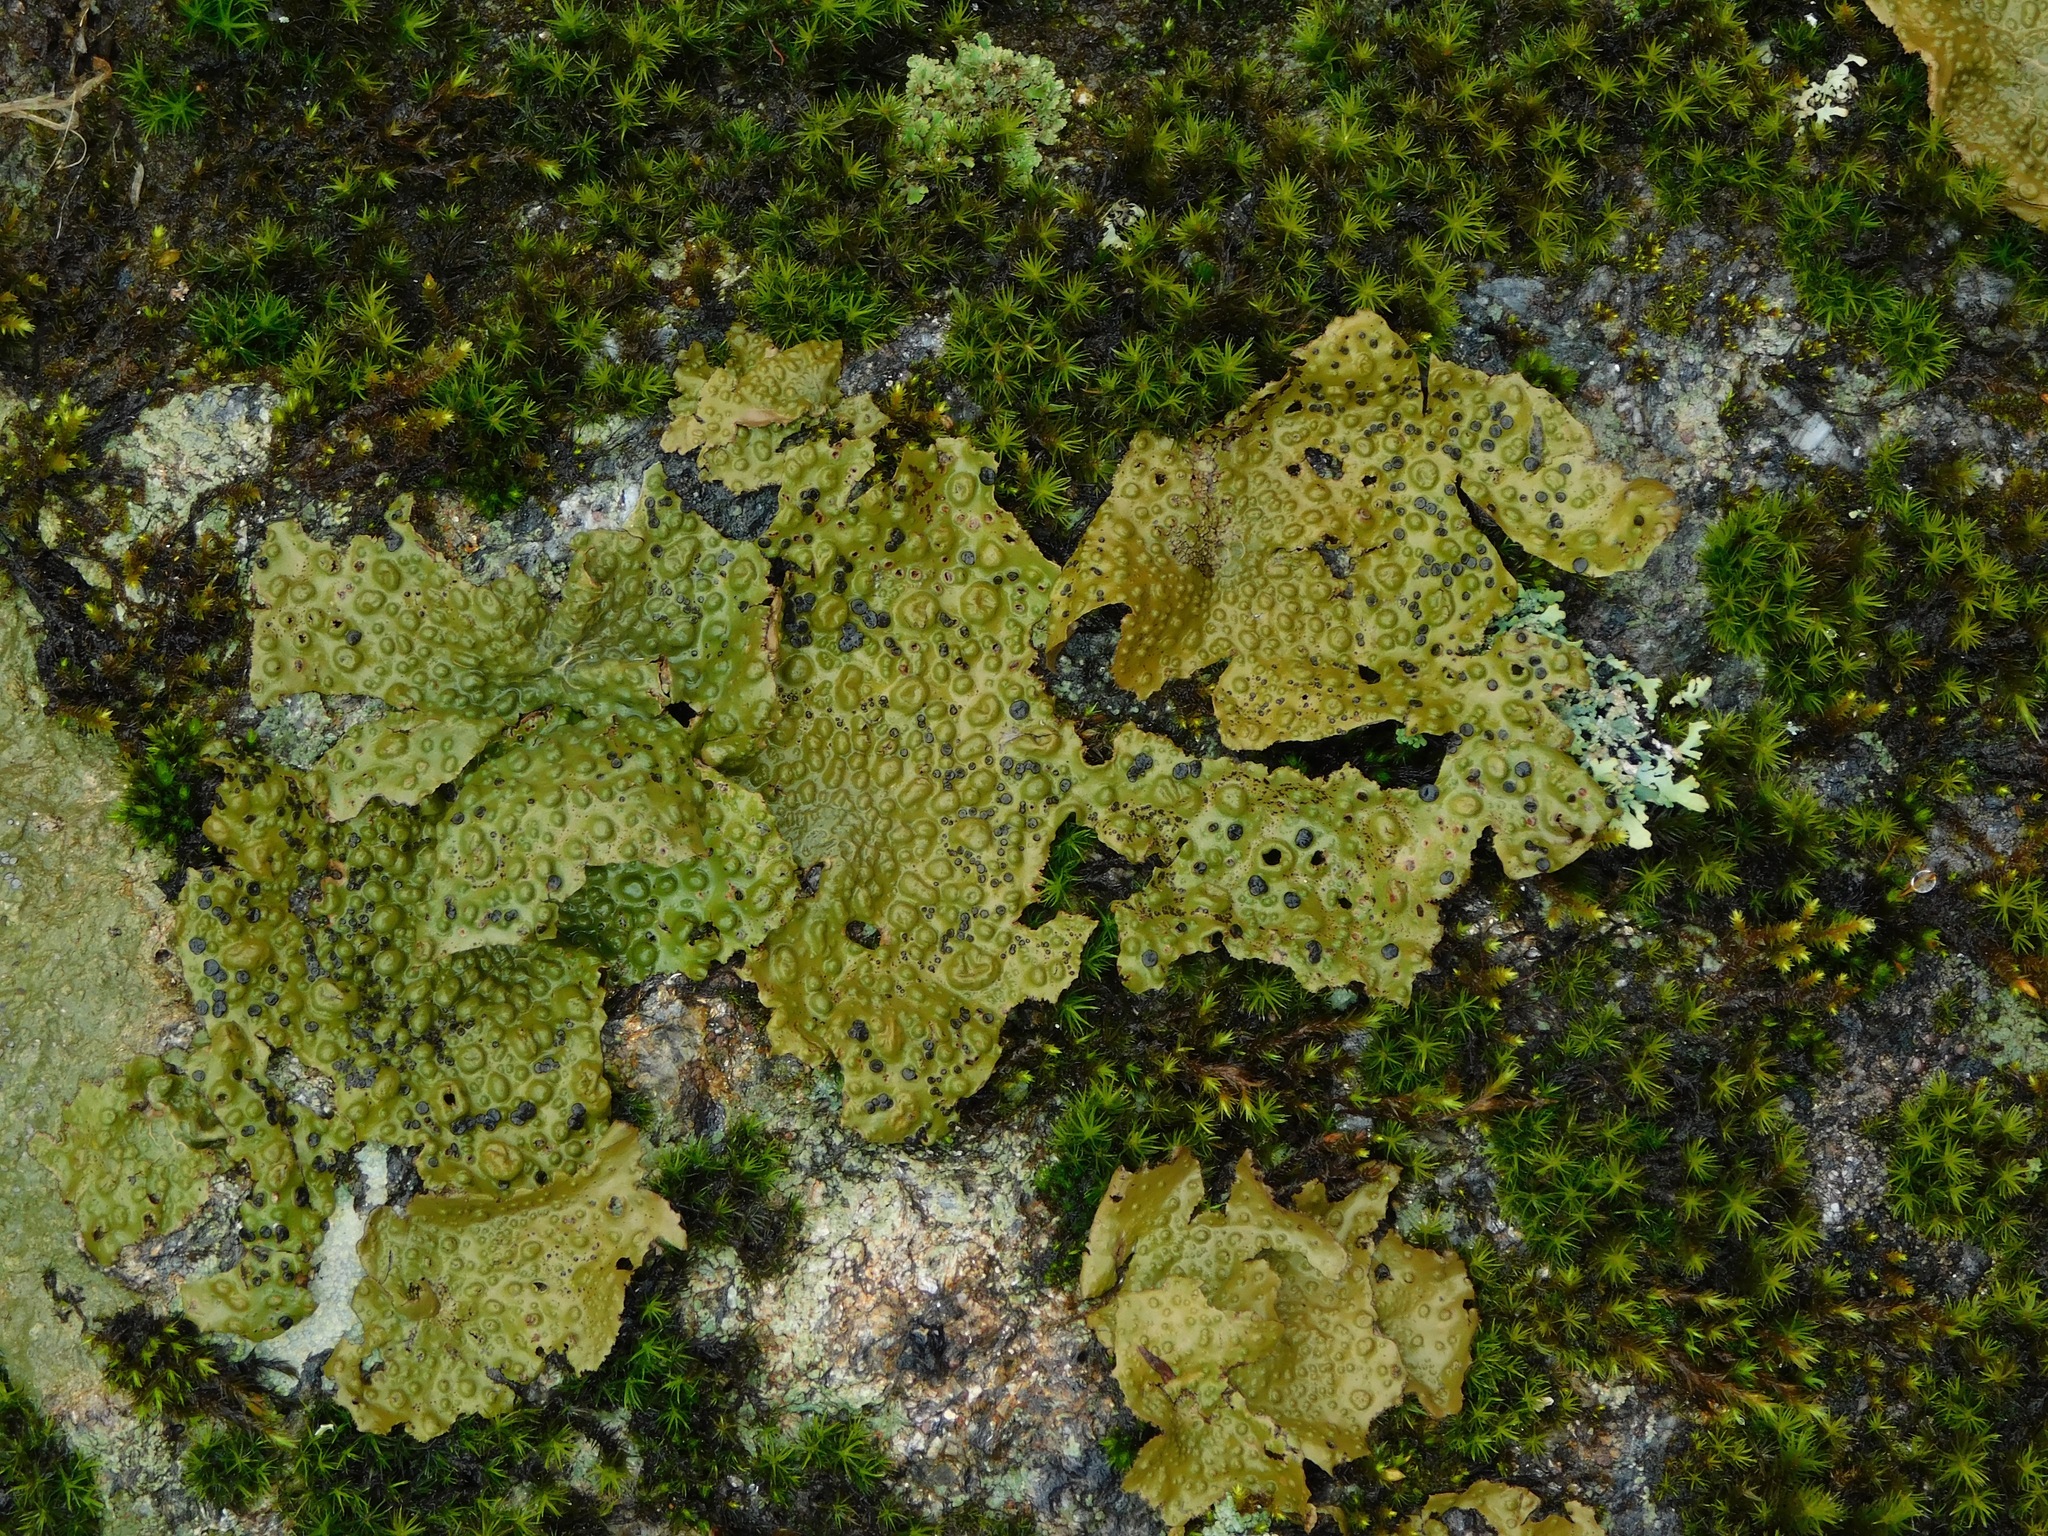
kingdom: Fungi
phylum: Ascomycota
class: Lecanoromycetes
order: Umbilicariales
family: Umbilicariaceae
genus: Lasallia
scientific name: Lasallia papulosa
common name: Common toadskin lichen
